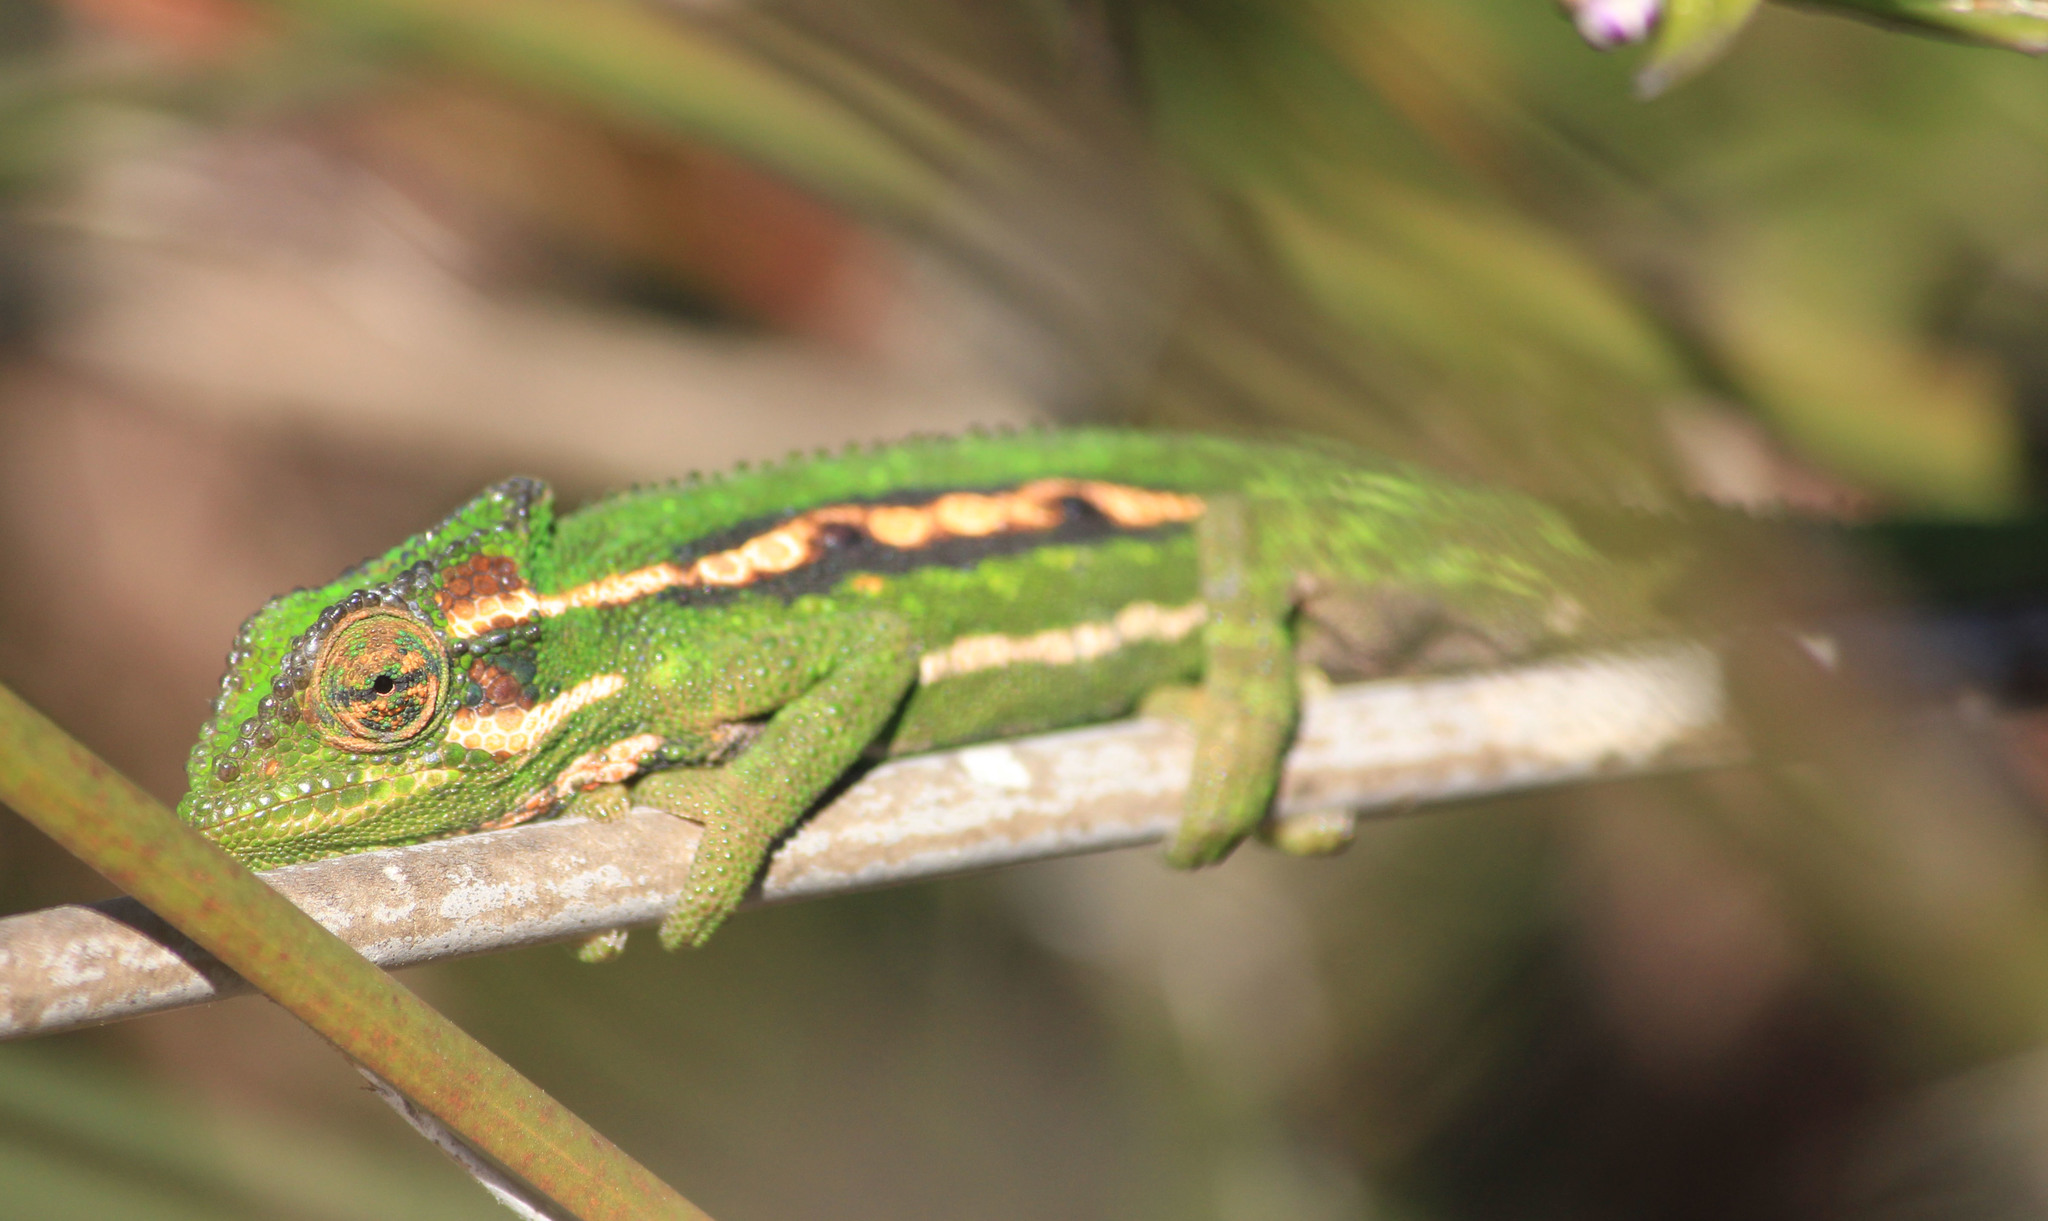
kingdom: Animalia
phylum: Chordata
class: Squamata
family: Chamaeleonidae
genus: Bradypodion
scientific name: Bradypodion pumilum
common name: Cape dwarf chameleon
